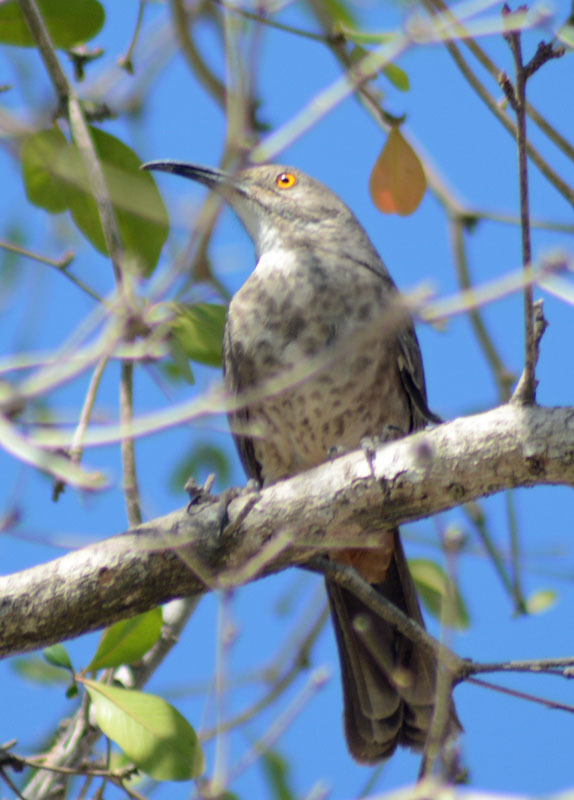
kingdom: Animalia
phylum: Chordata
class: Aves
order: Passeriformes
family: Mimidae
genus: Toxostoma
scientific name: Toxostoma curvirostre
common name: Curve-billed thrasher
